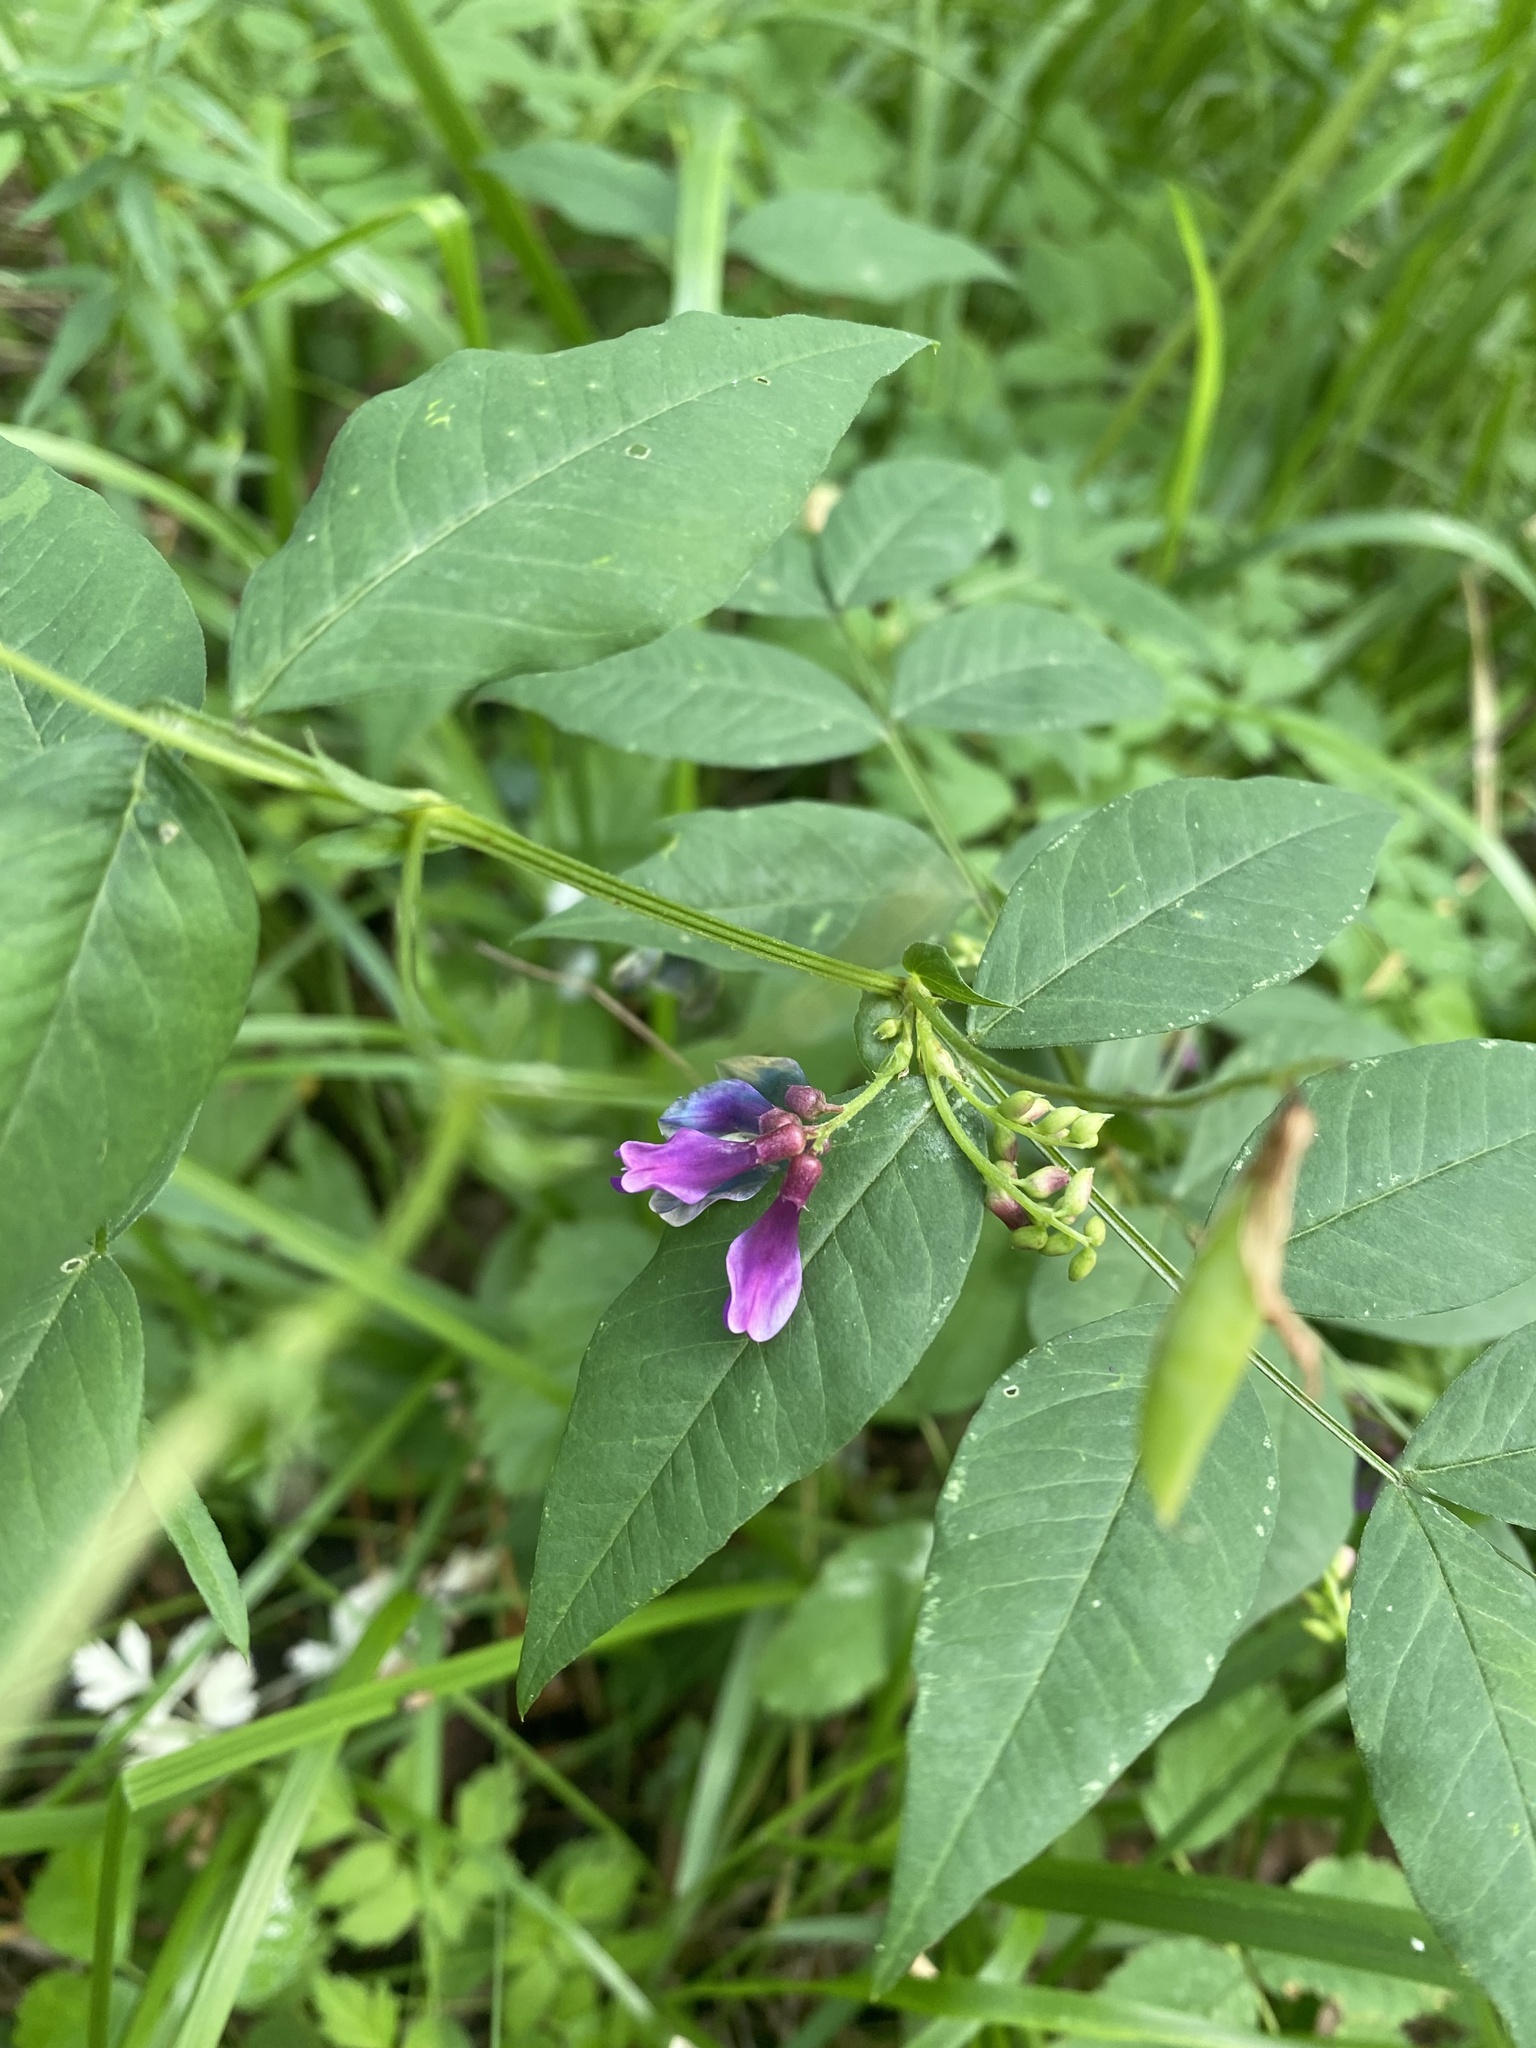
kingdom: Plantae
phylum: Tracheophyta
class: Magnoliopsida
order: Fabales
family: Fabaceae
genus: Vicia
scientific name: Vicia ramuliflora
